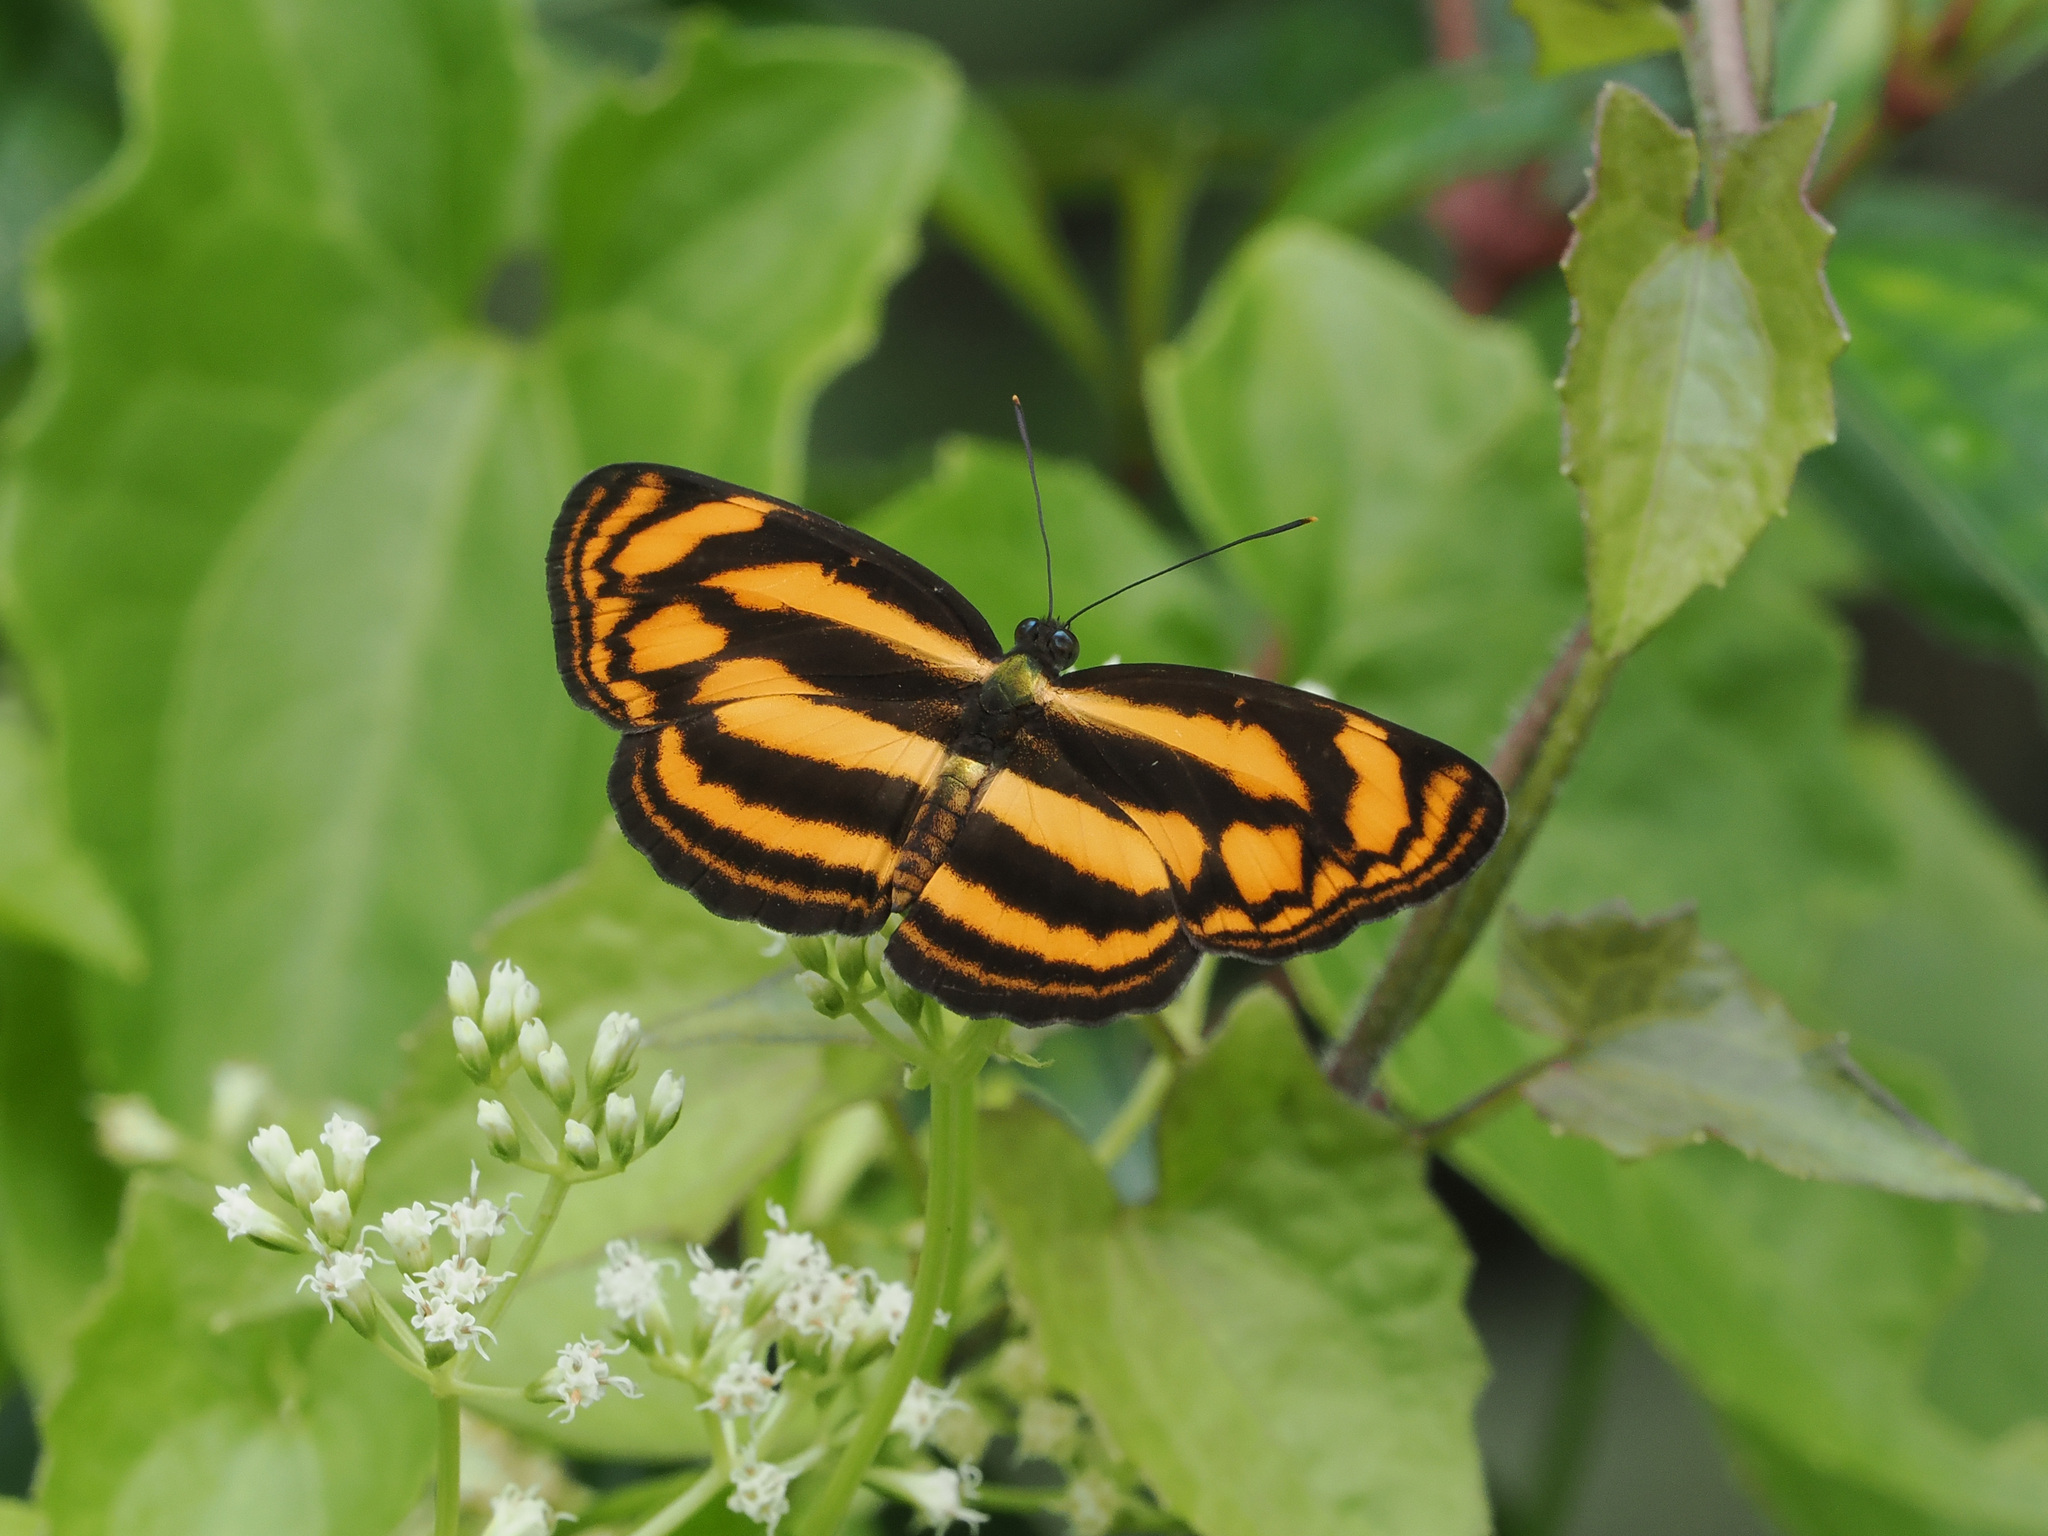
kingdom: Animalia
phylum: Arthropoda
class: Insecta
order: Lepidoptera
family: Nymphalidae
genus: Lasippa
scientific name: Lasippa tiga
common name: Malayan lascar
